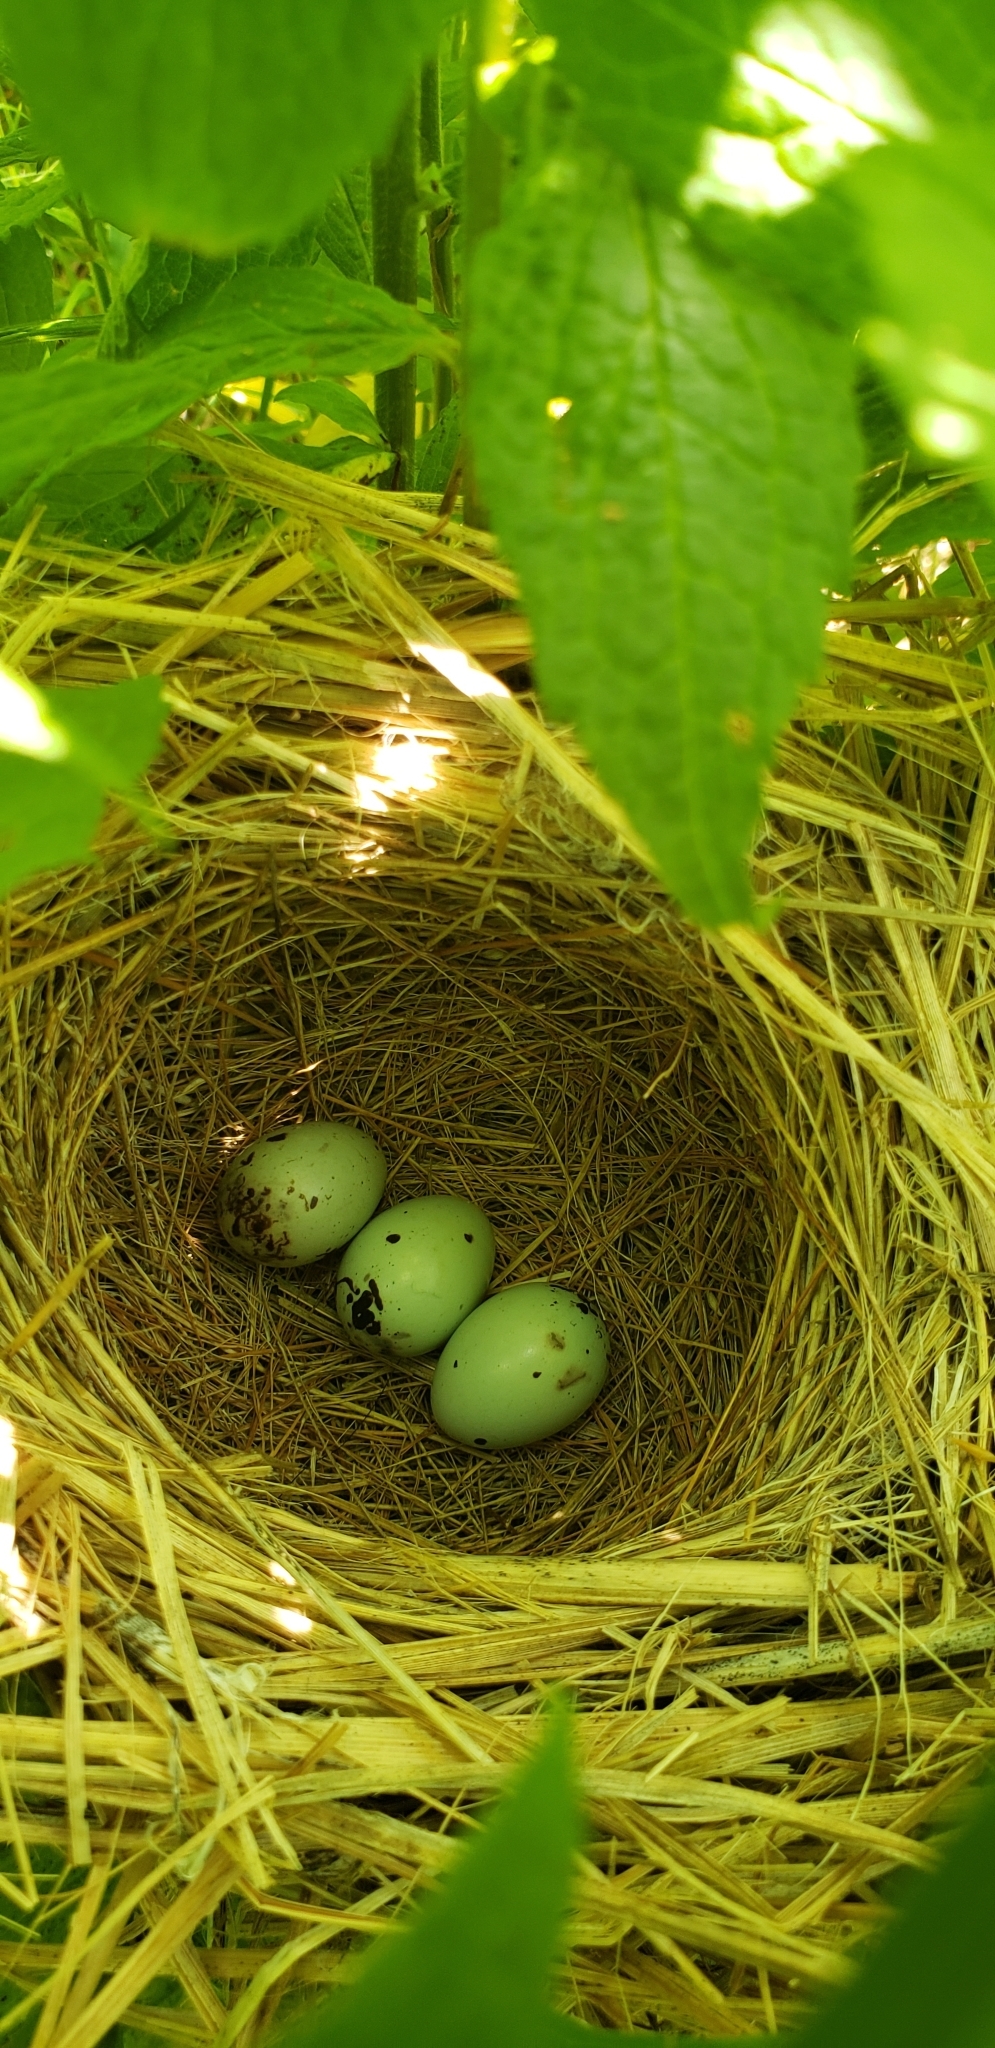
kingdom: Animalia
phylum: Chordata
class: Aves
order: Passeriformes
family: Icteridae
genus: Agelaius
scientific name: Agelaius phoeniceus
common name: Red-winged blackbird
